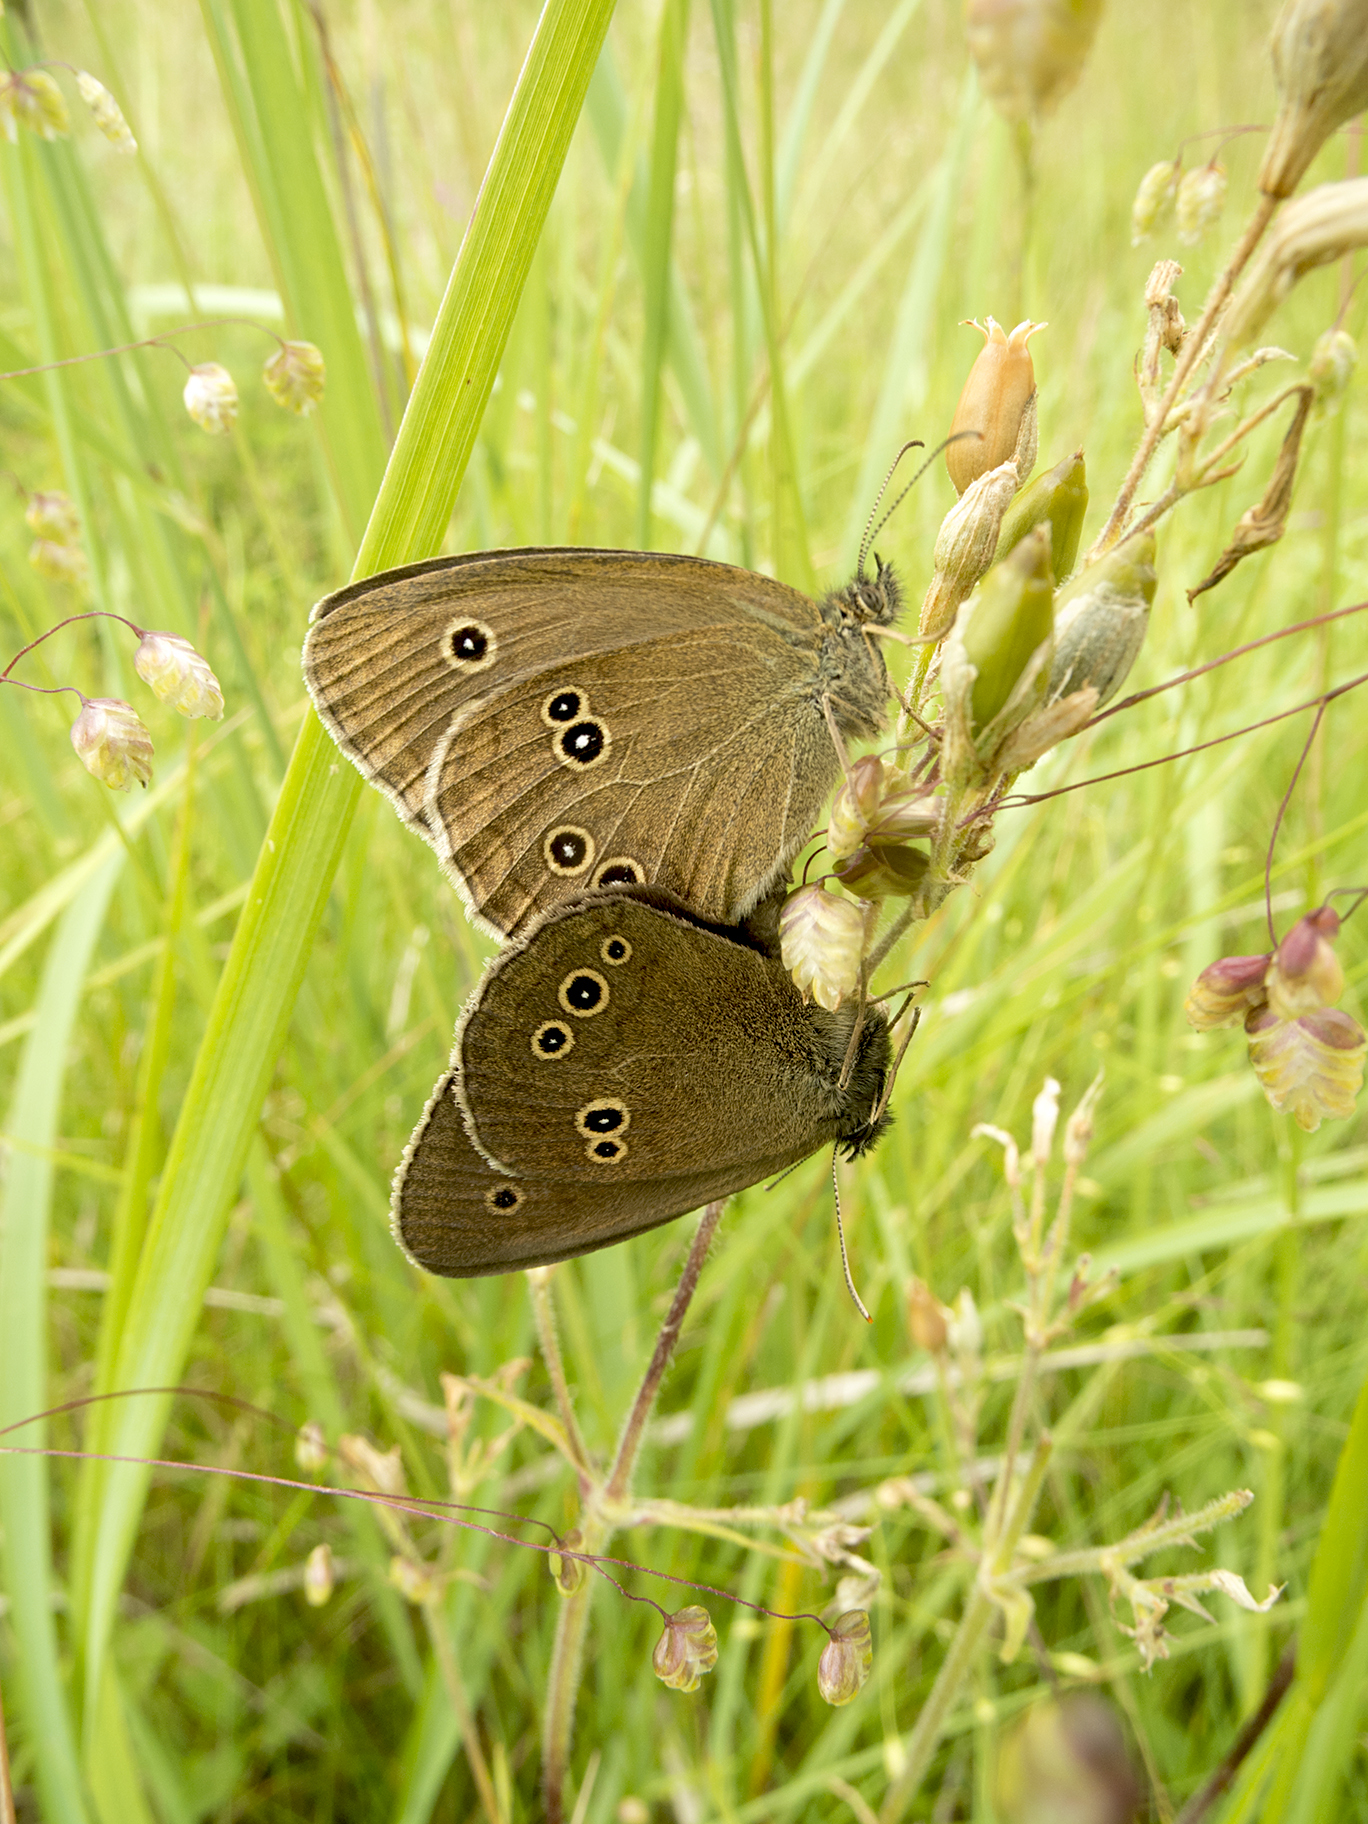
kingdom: Animalia
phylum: Arthropoda
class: Insecta
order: Lepidoptera
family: Nymphalidae
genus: Aphantopus
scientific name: Aphantopus hyperantus
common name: Ringlet
